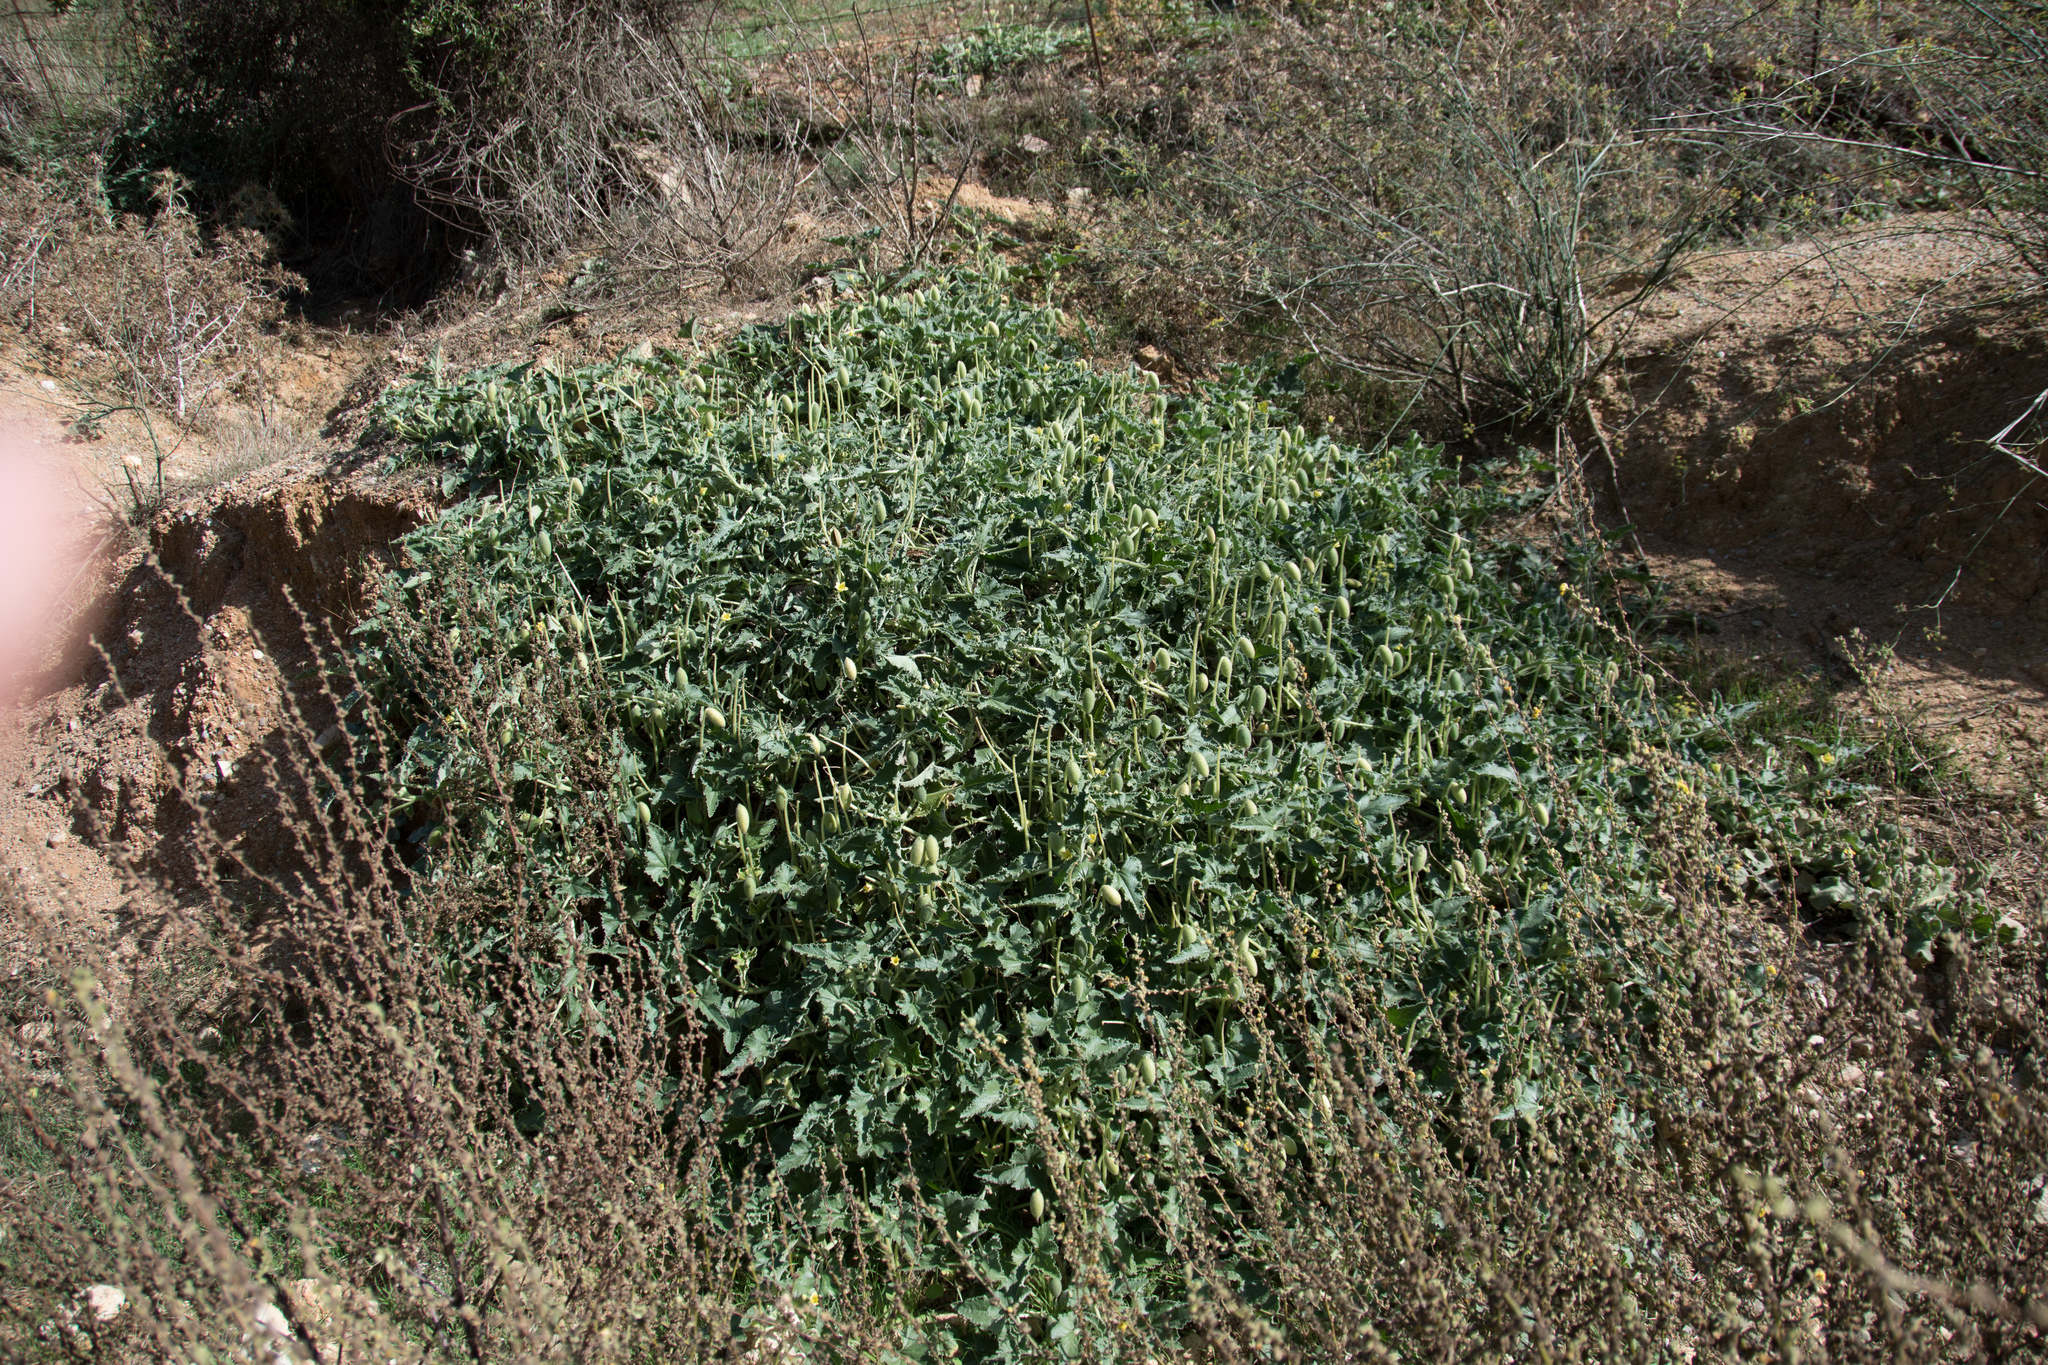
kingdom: Plantae
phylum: Tracheophyta
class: Magnoliopsida
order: Cucurbitales
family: Cucurbitaceae
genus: Ecballium
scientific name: Ecballium elaterium
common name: Squirting cucumber
